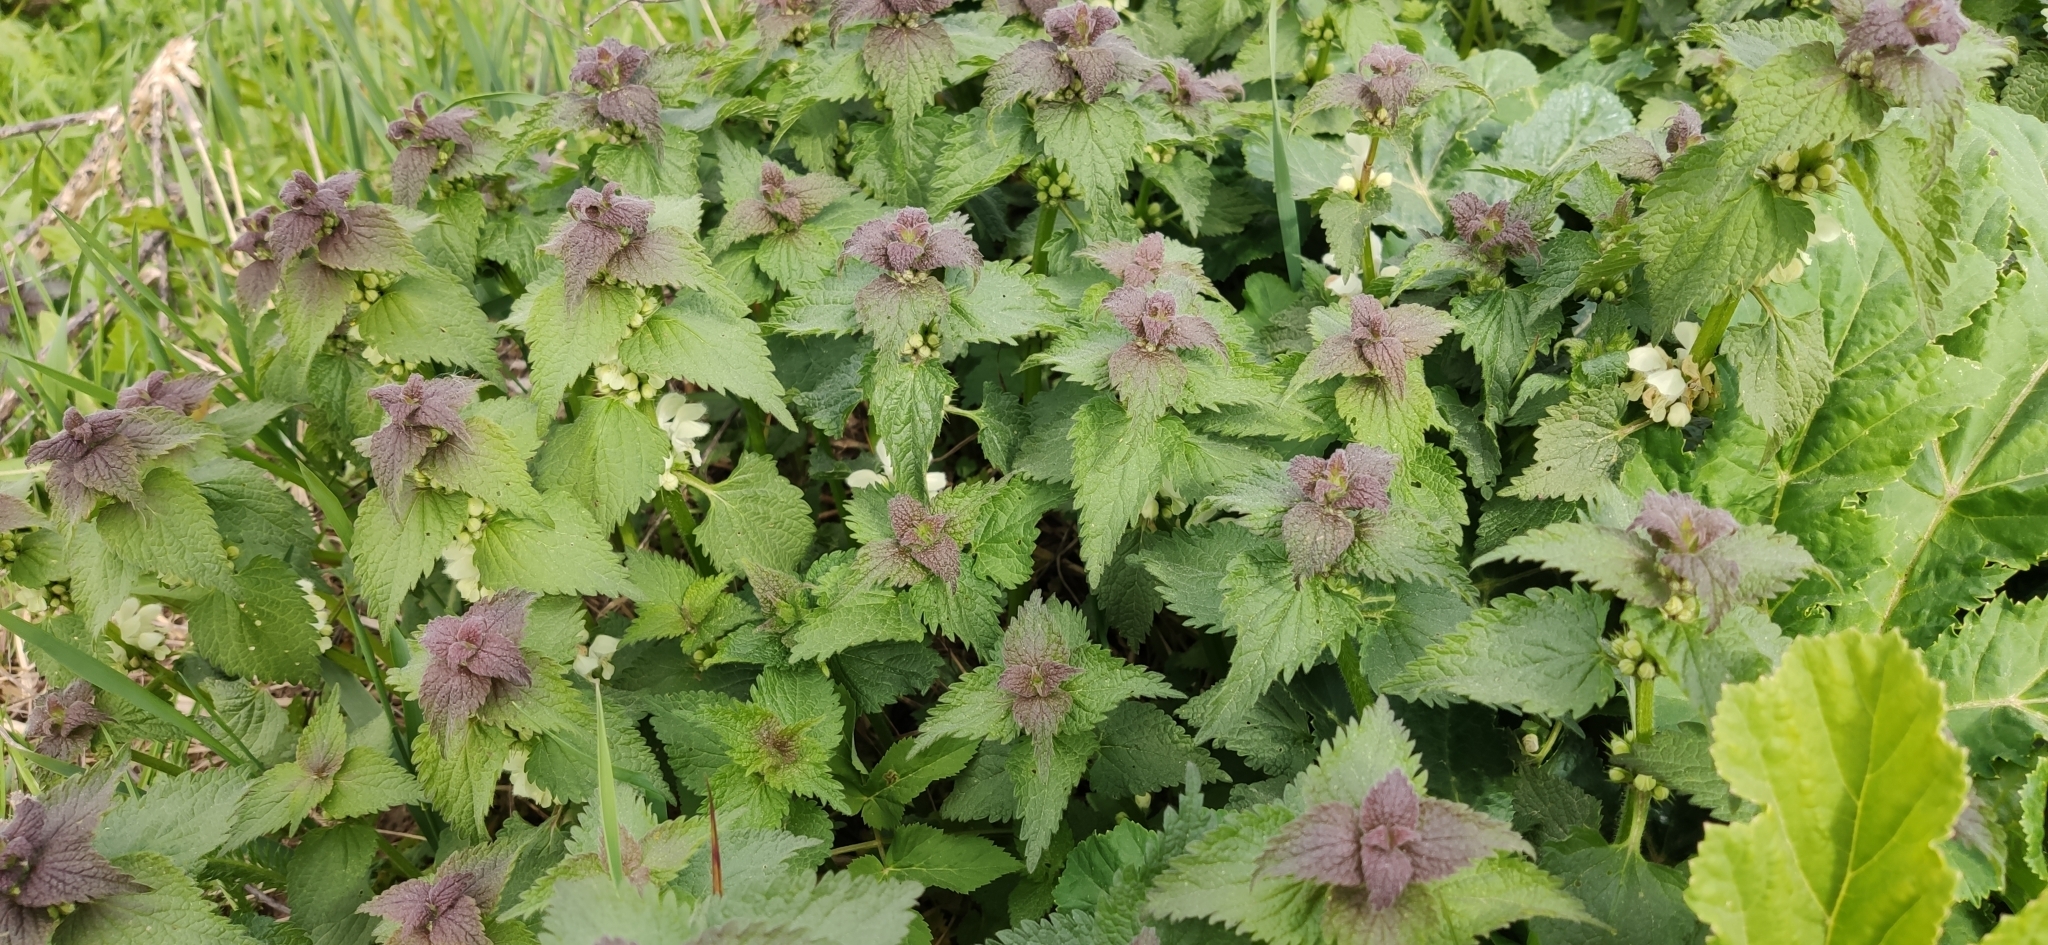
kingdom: Plantae
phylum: Tracheophyta
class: Magnoliopsida
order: Lamiales
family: Lamiaceae
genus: Lamium
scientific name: Lamium album
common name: White dead-nettle
